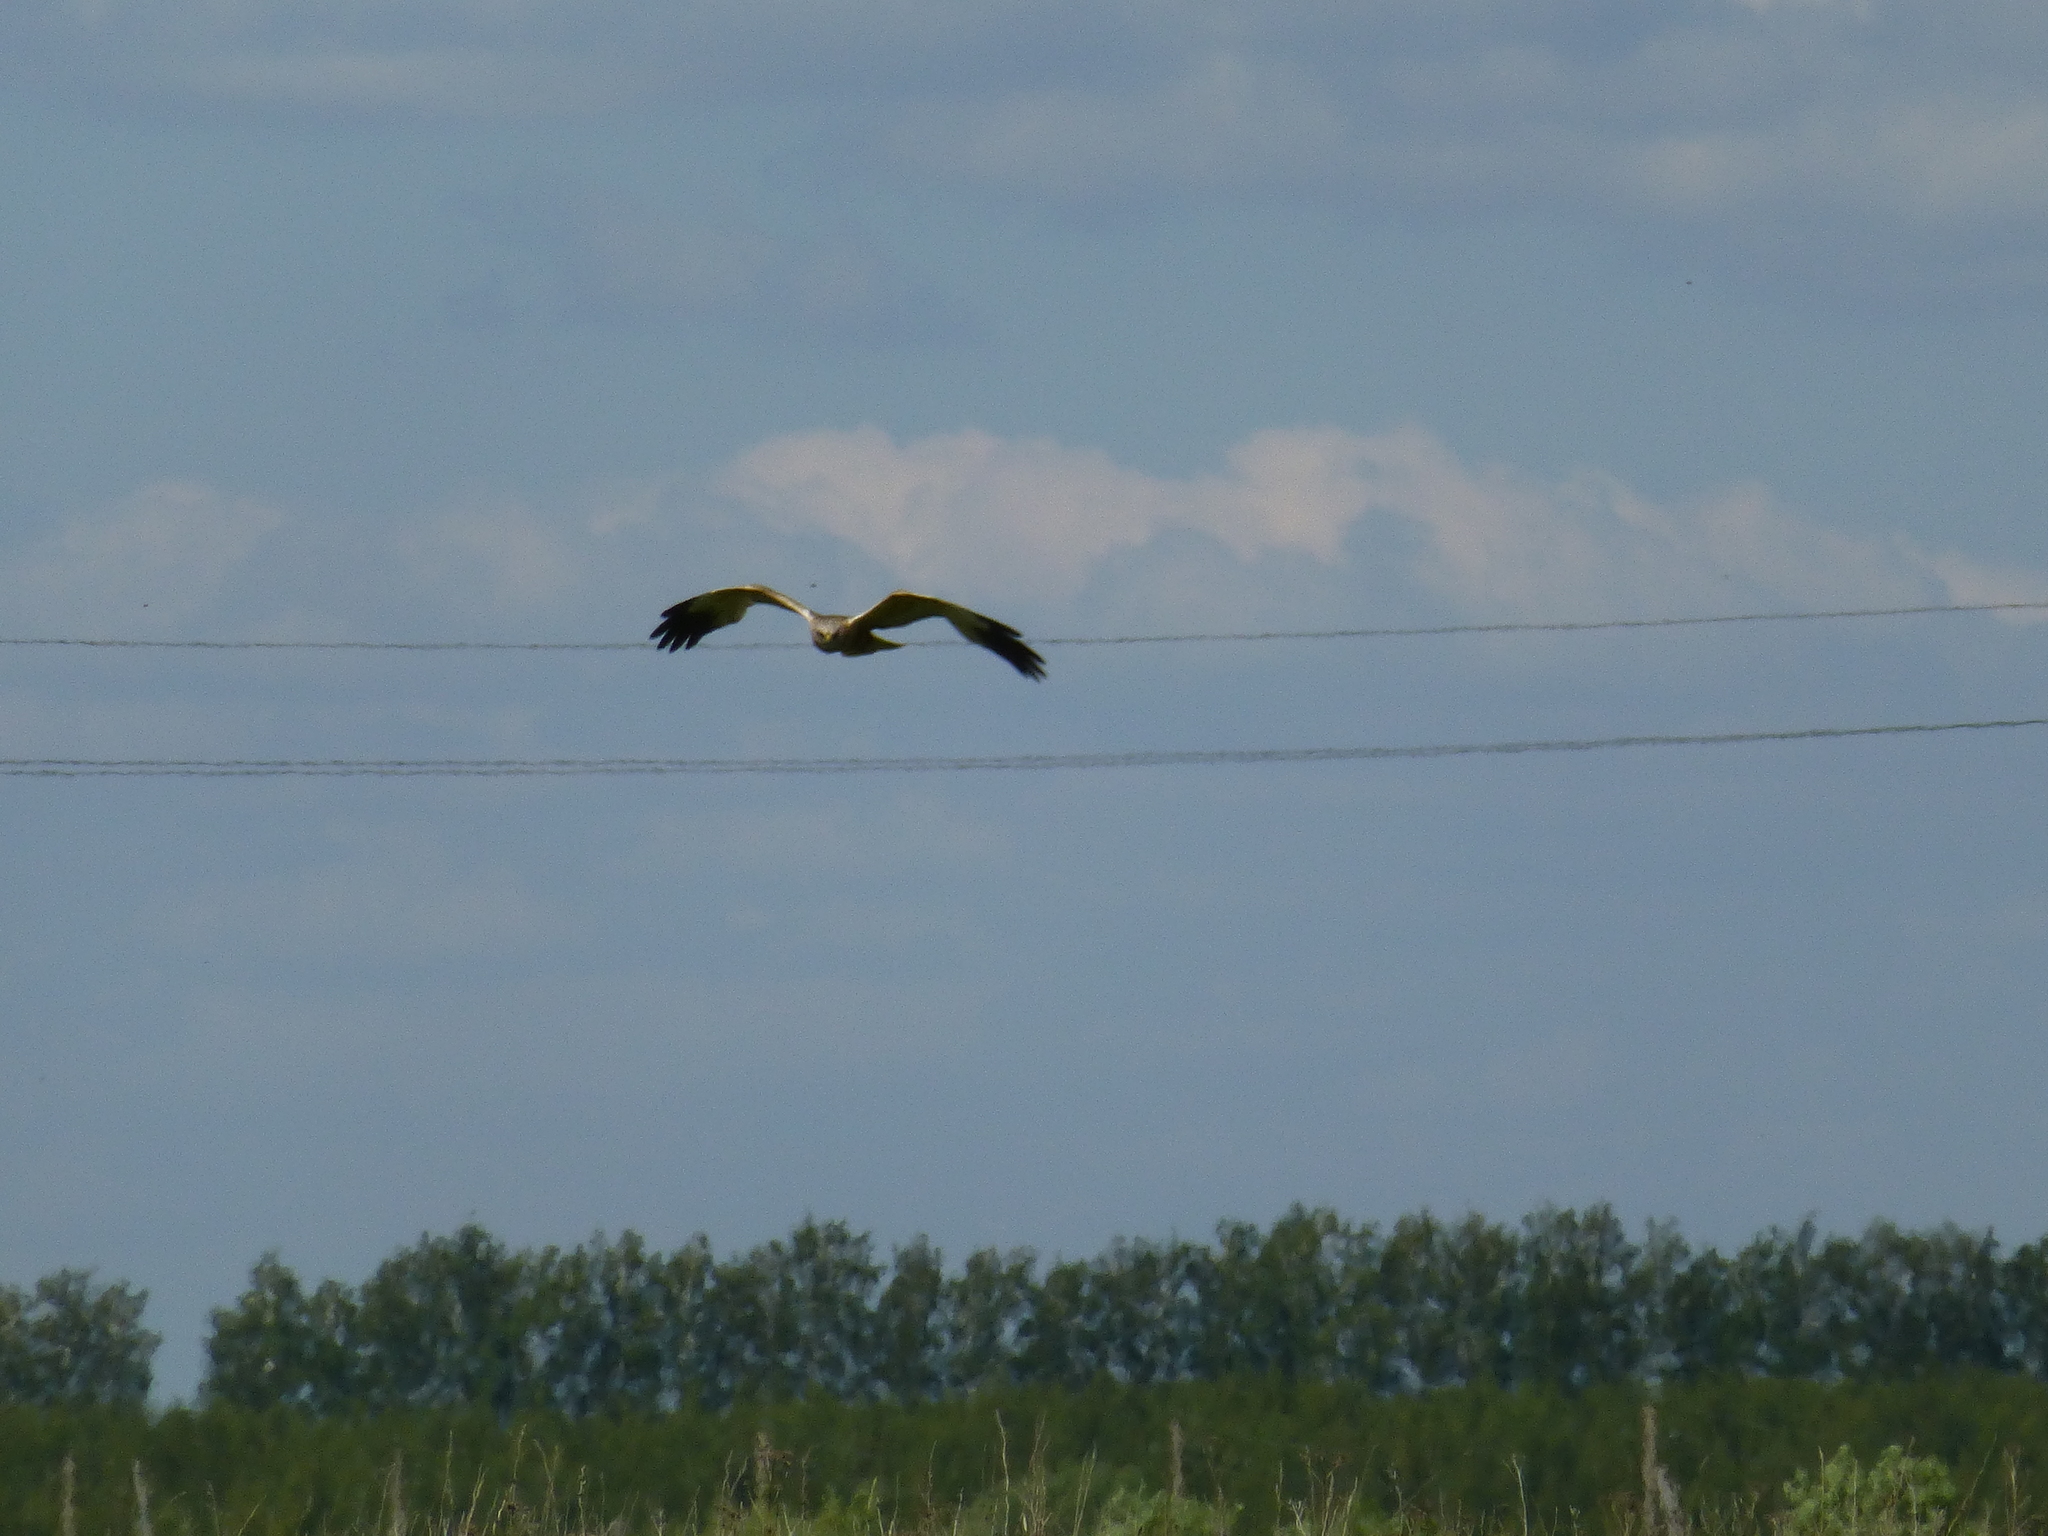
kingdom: Animalia
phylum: Chordata
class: Aves
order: Accipitriformes
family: Accipitridae
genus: Circus
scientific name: Circus aeruginosus
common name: Western marsh harrier
